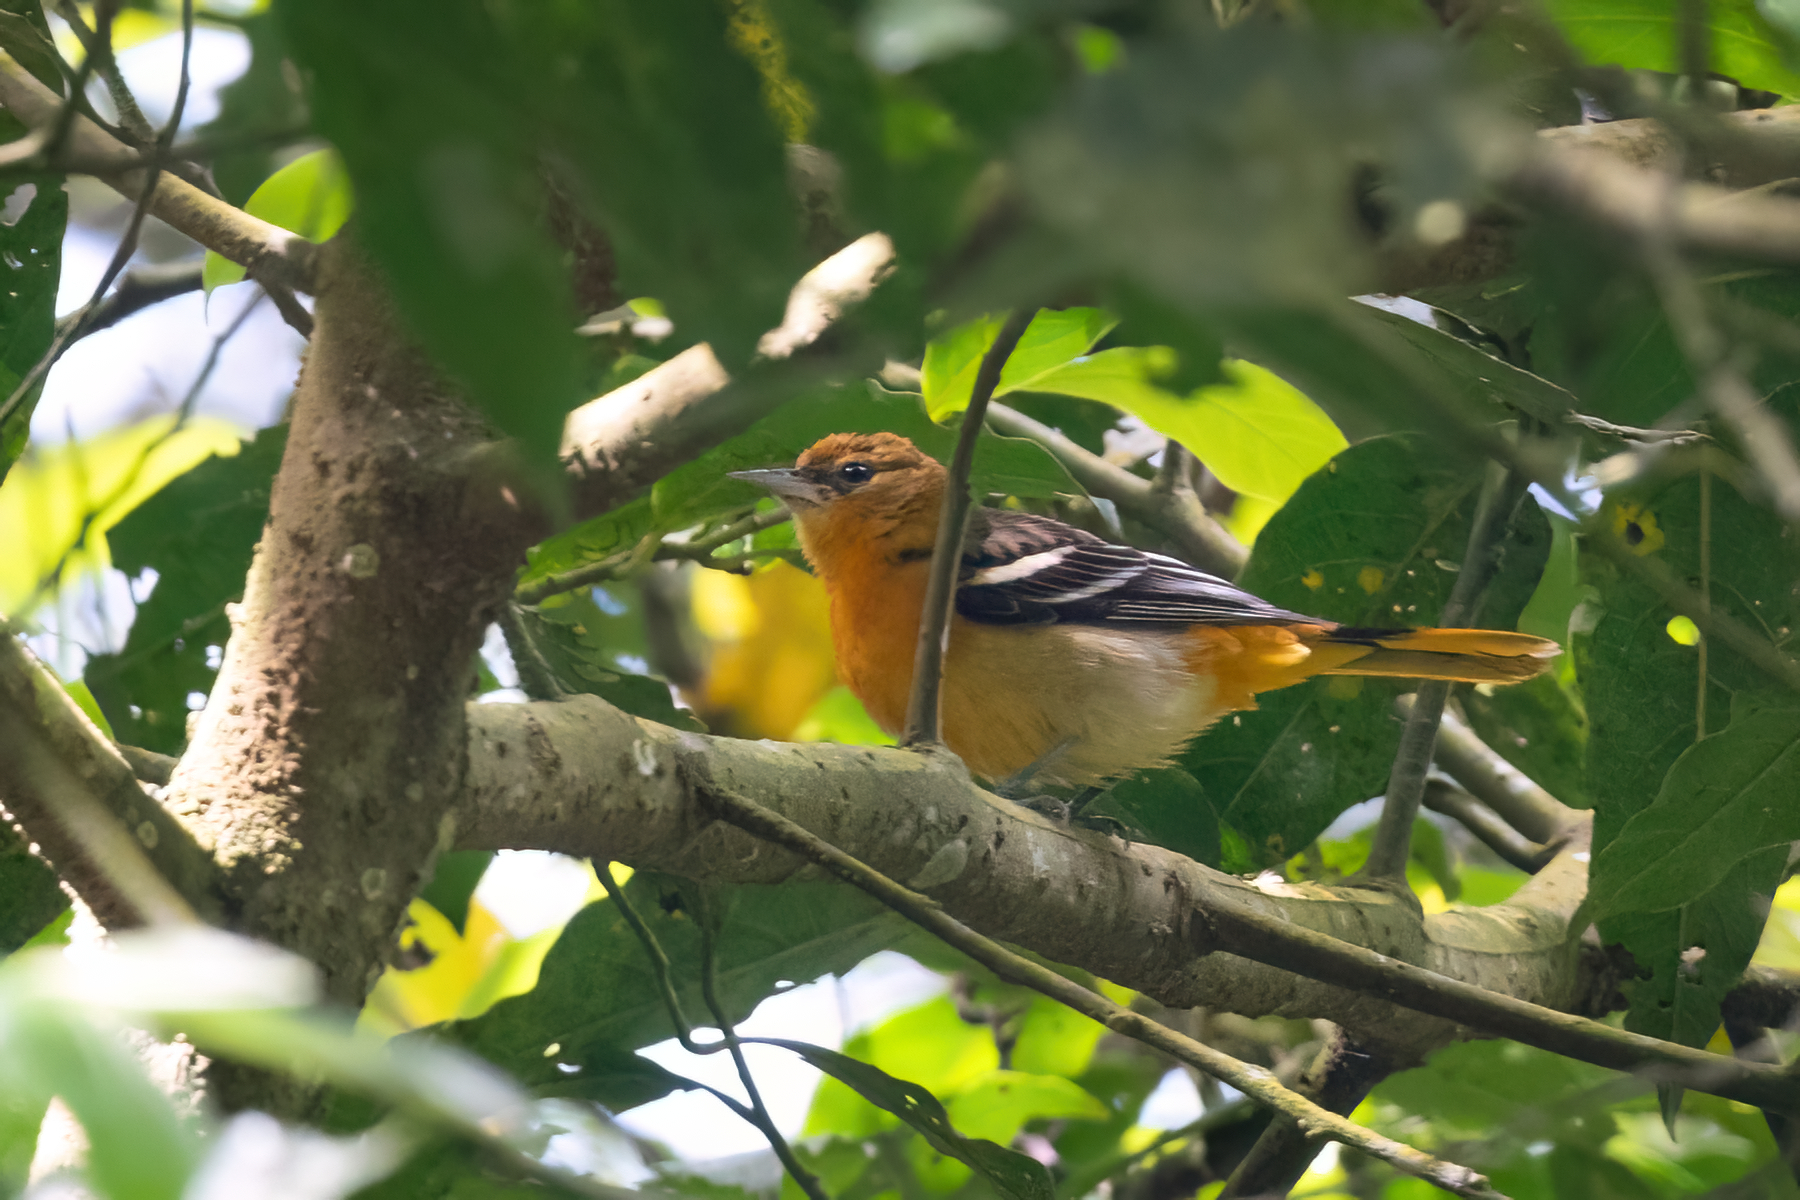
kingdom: Animalia
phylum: Chordata
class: Aves
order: Passeriformes
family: Icteridae
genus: Icterus
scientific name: Icterus galbula
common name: Baltimore oriole
